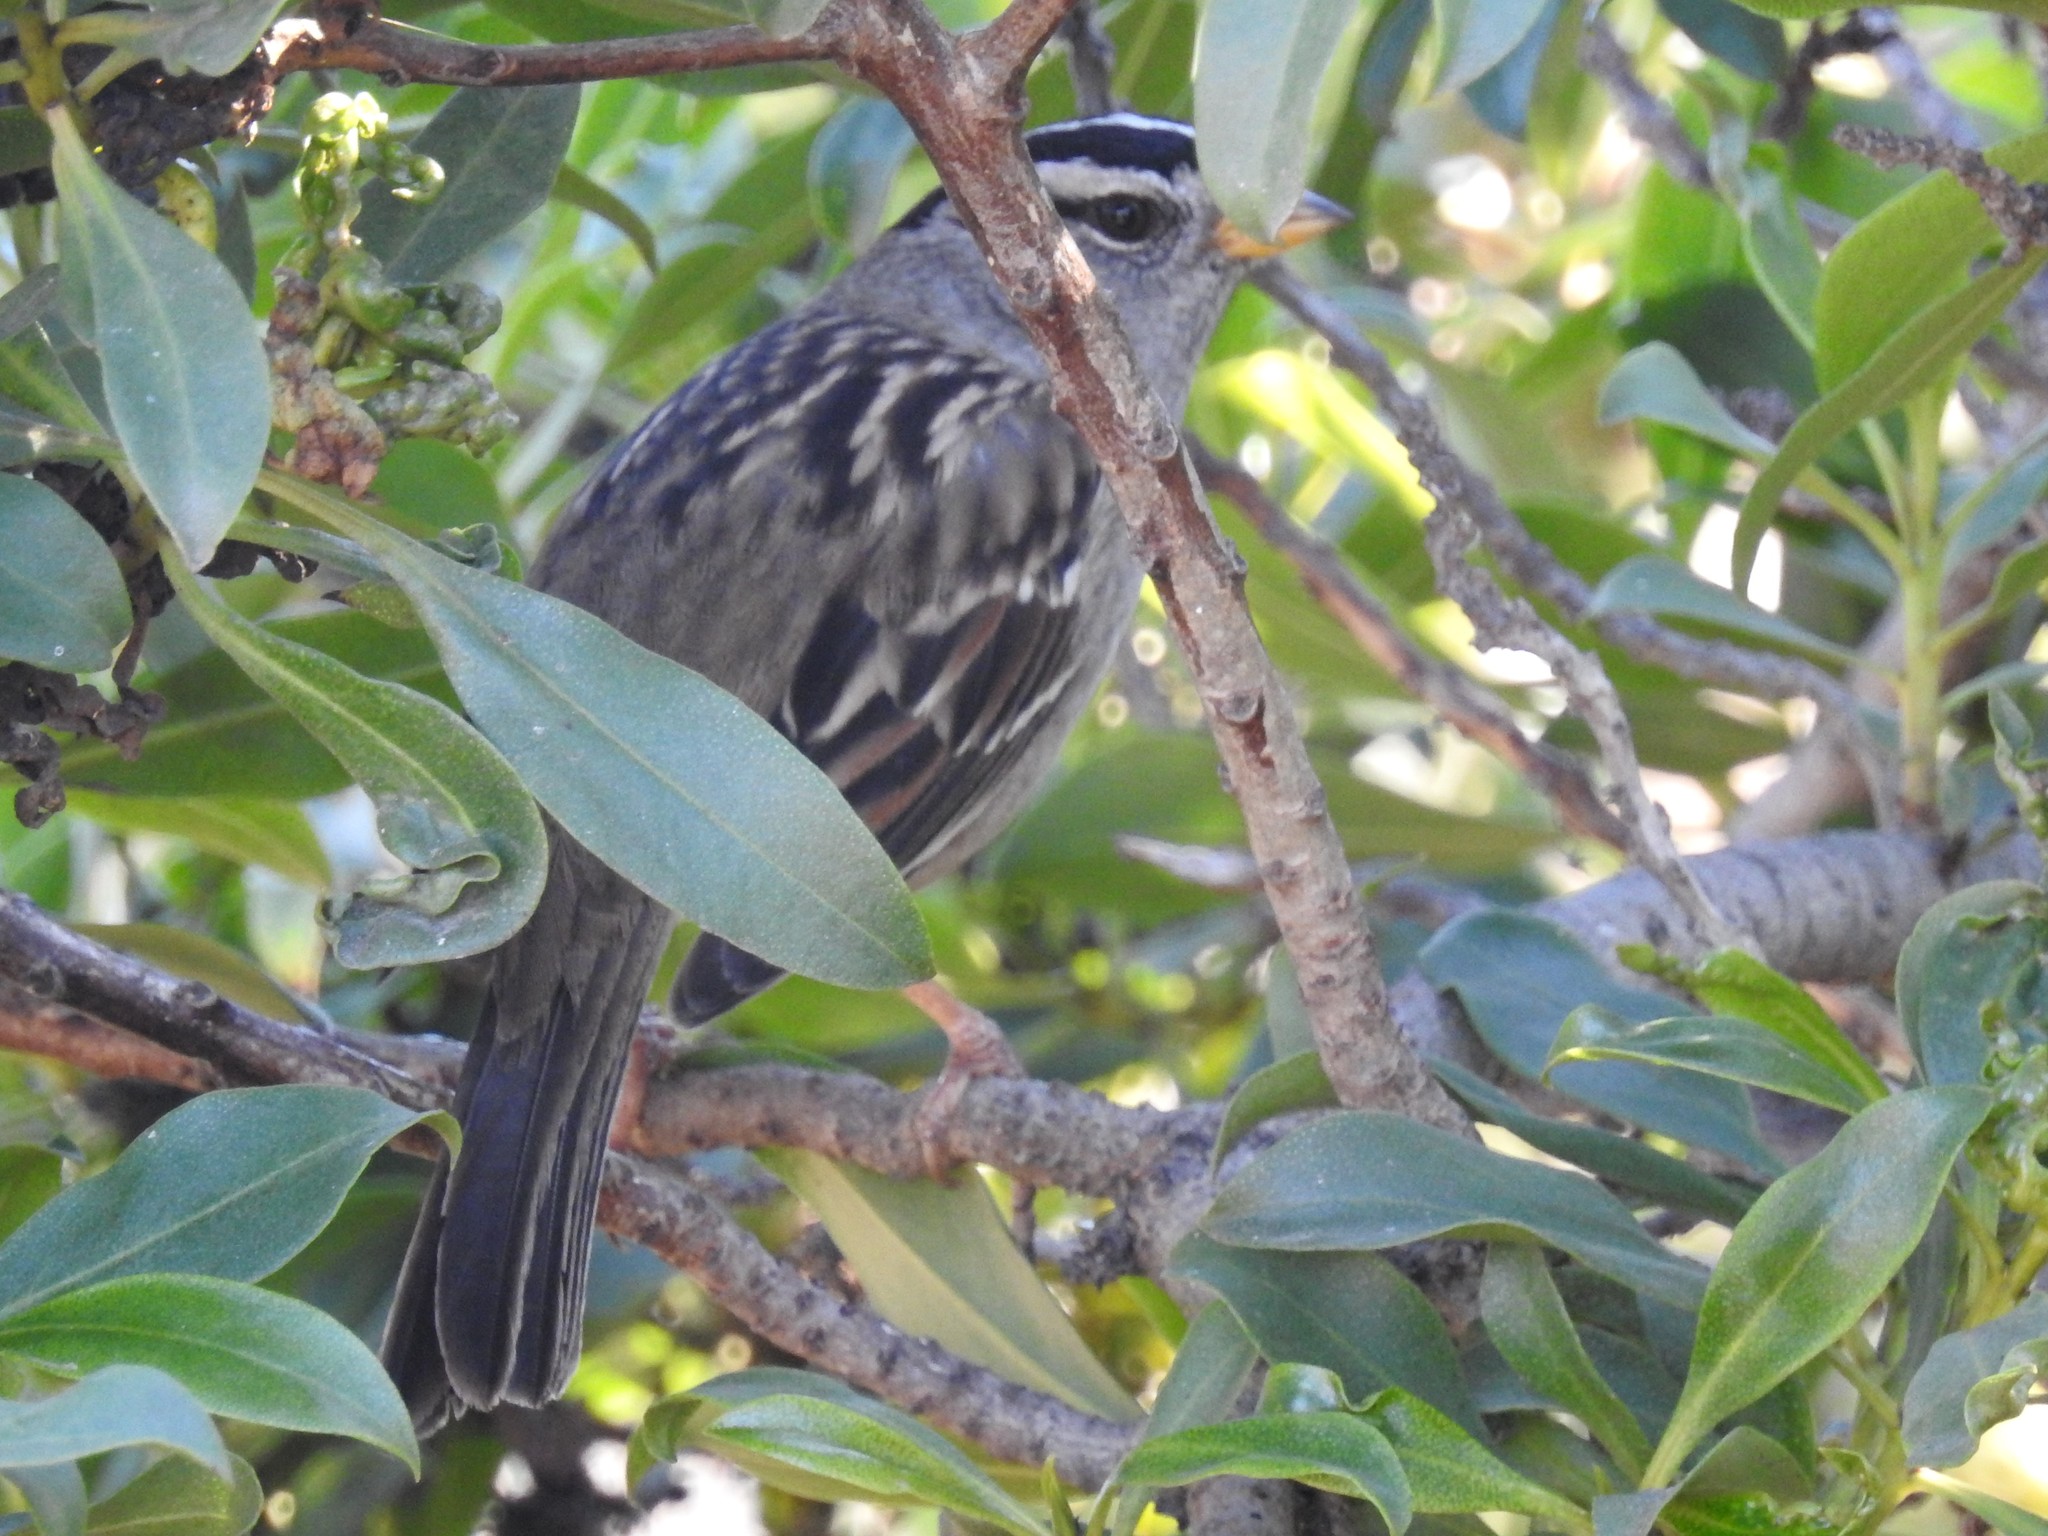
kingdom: Animalia
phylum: Chordata
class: Aves
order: Passeriformes
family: Passerellidae
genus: Zonotrichia
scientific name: Zonotrichia leucophrys
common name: White-crowned sparrow
